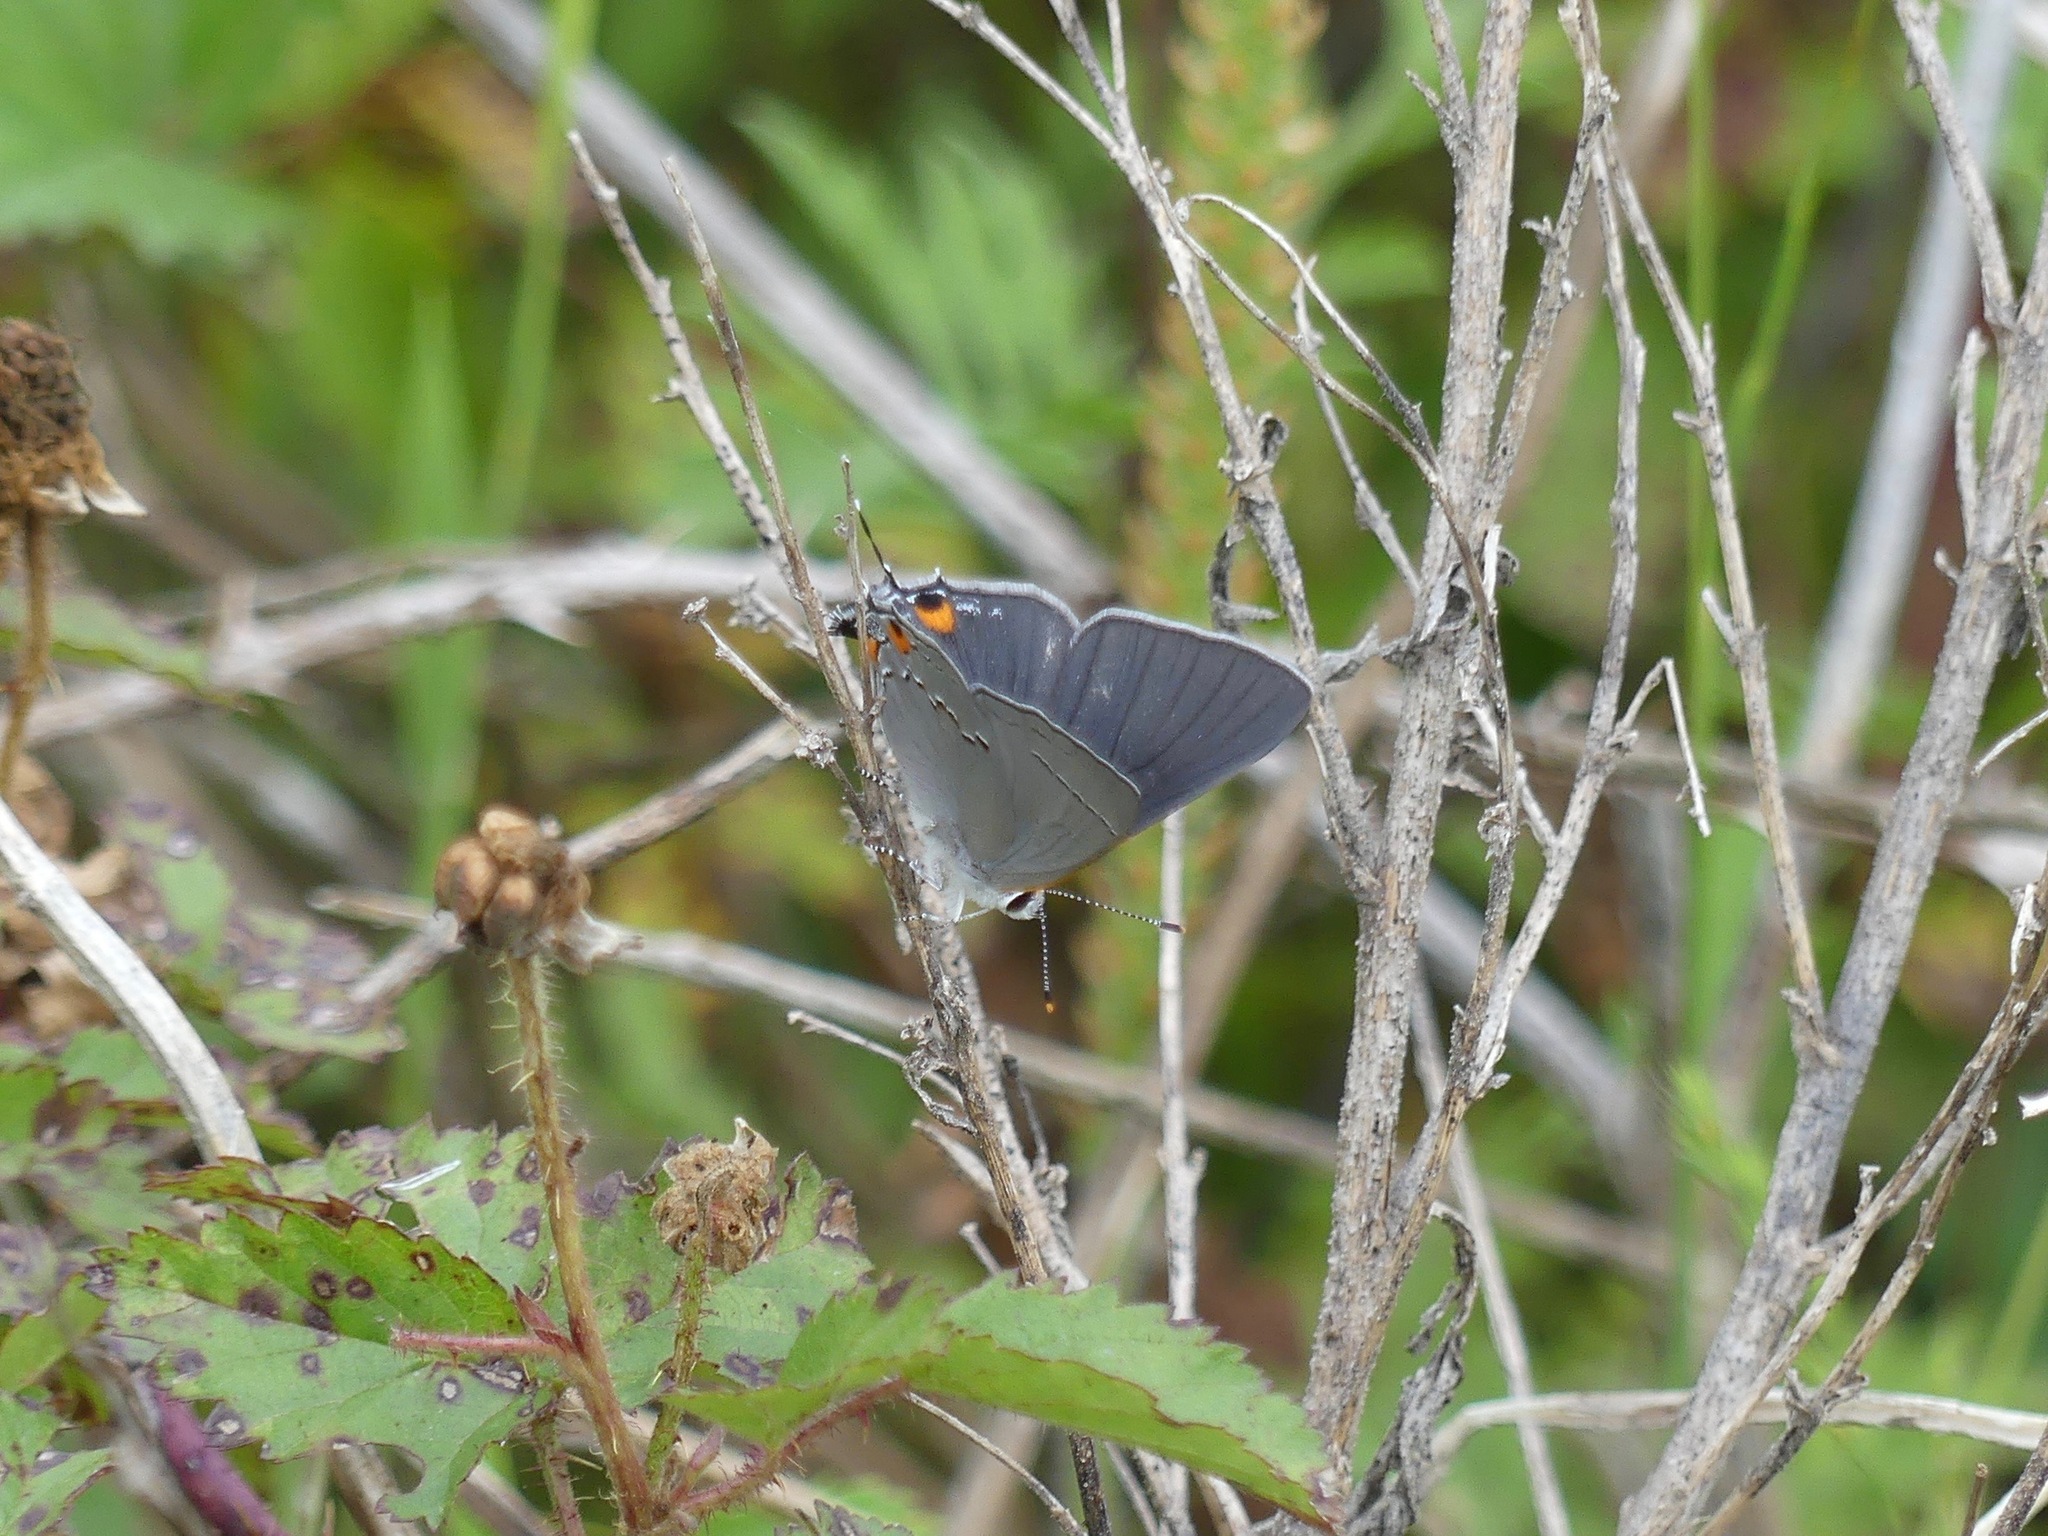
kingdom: Animalia
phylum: Arthropoda
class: Insecta
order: Lepidoptera
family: Lycaenidae
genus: Strymon
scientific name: Strymon melinus
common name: Gray hairstreak
